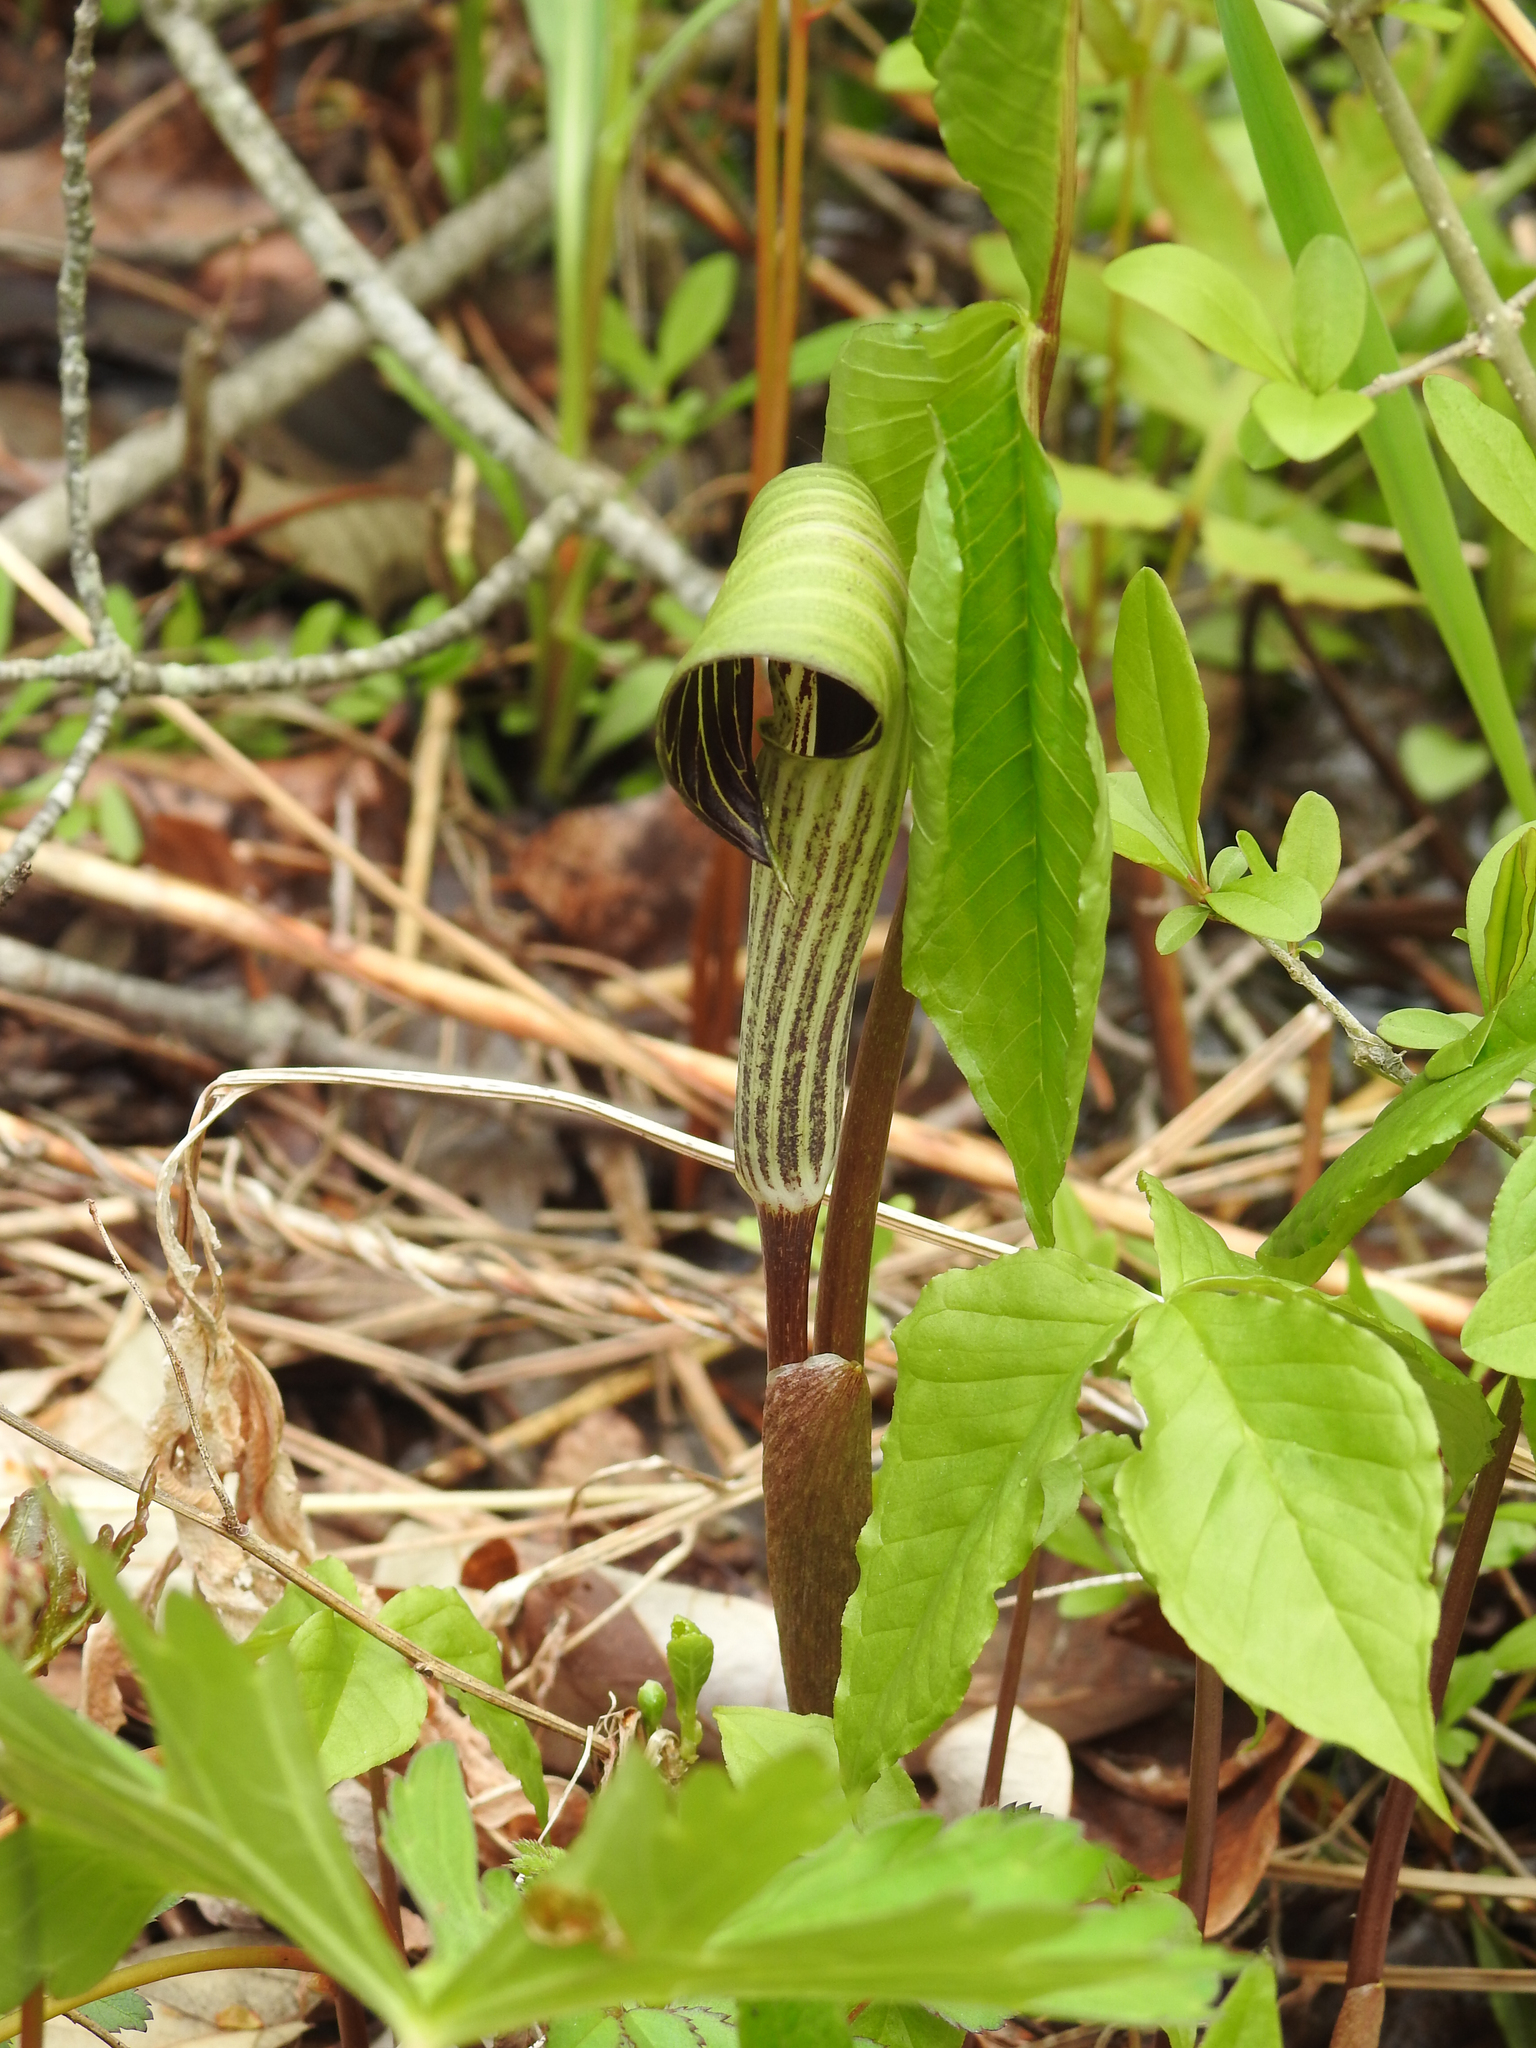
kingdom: Plantae
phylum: Tracheophyta
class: Liliopsida
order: Alismatales
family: Araceae
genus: Arisaema
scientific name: Arisaema triphyllum
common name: Jack-in-the-pulpit
